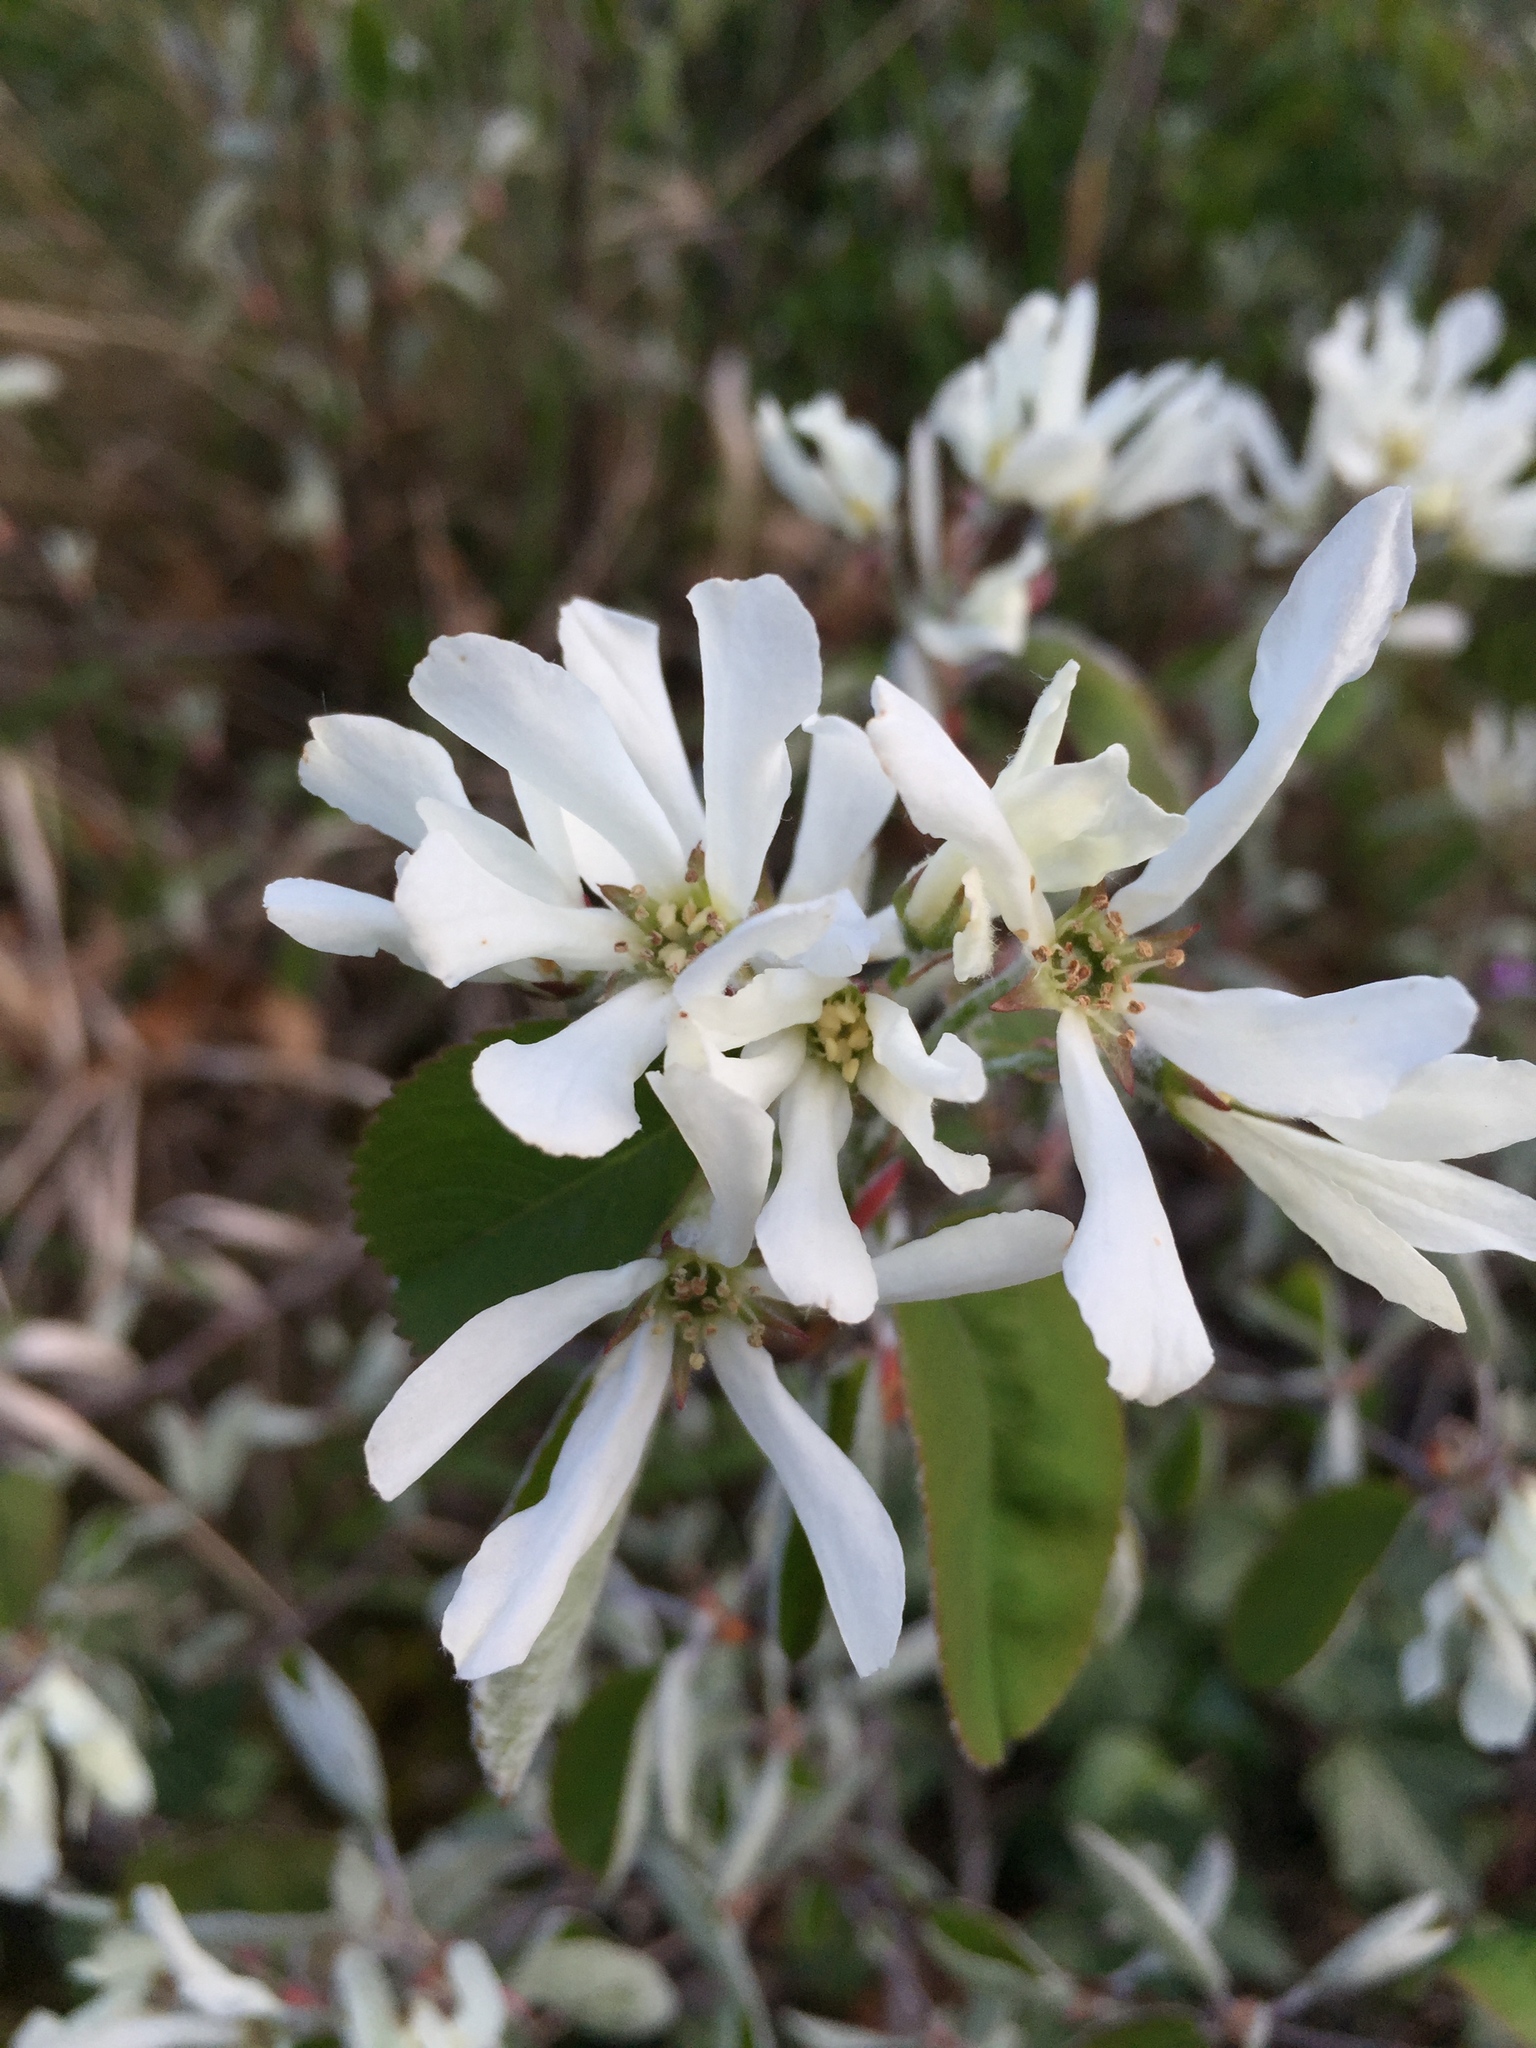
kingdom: Plantae
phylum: Tracheophyta
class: Magnoliopsida
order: Rosales
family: Rosaceae
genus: Amelanchier
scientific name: Amelanchier ovalis
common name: Serviceberry
